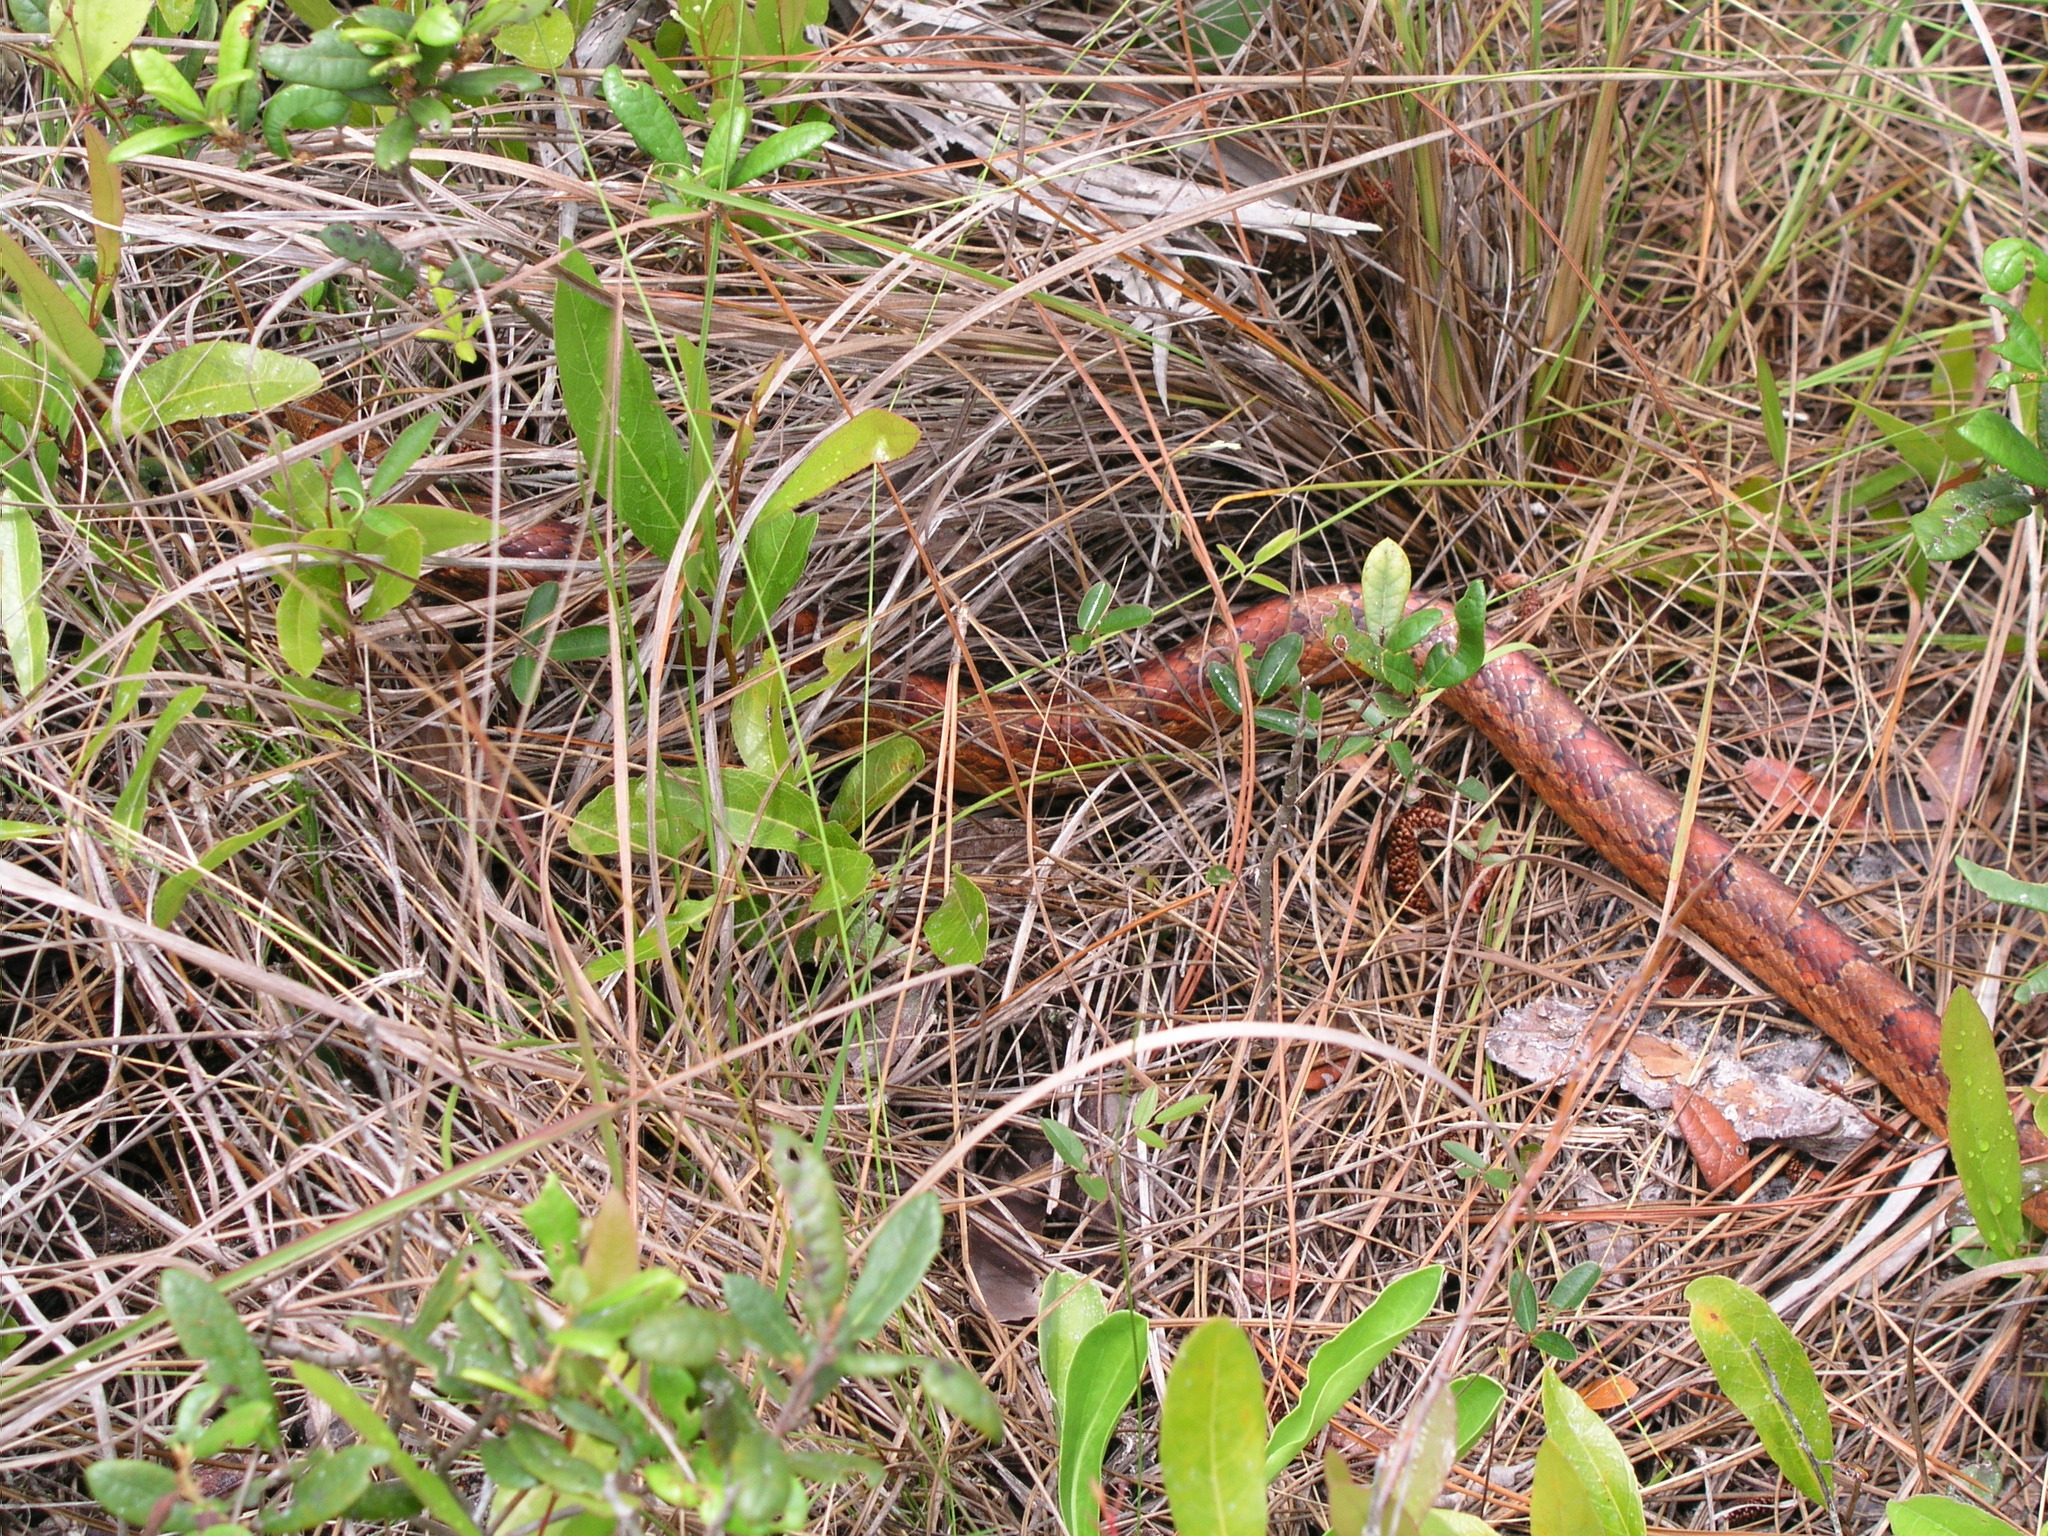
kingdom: Animalia
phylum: Chordata
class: Squamata
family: Colubridae
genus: Pantherophis
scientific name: Pantherophis guttatus
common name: Red cornsnake
